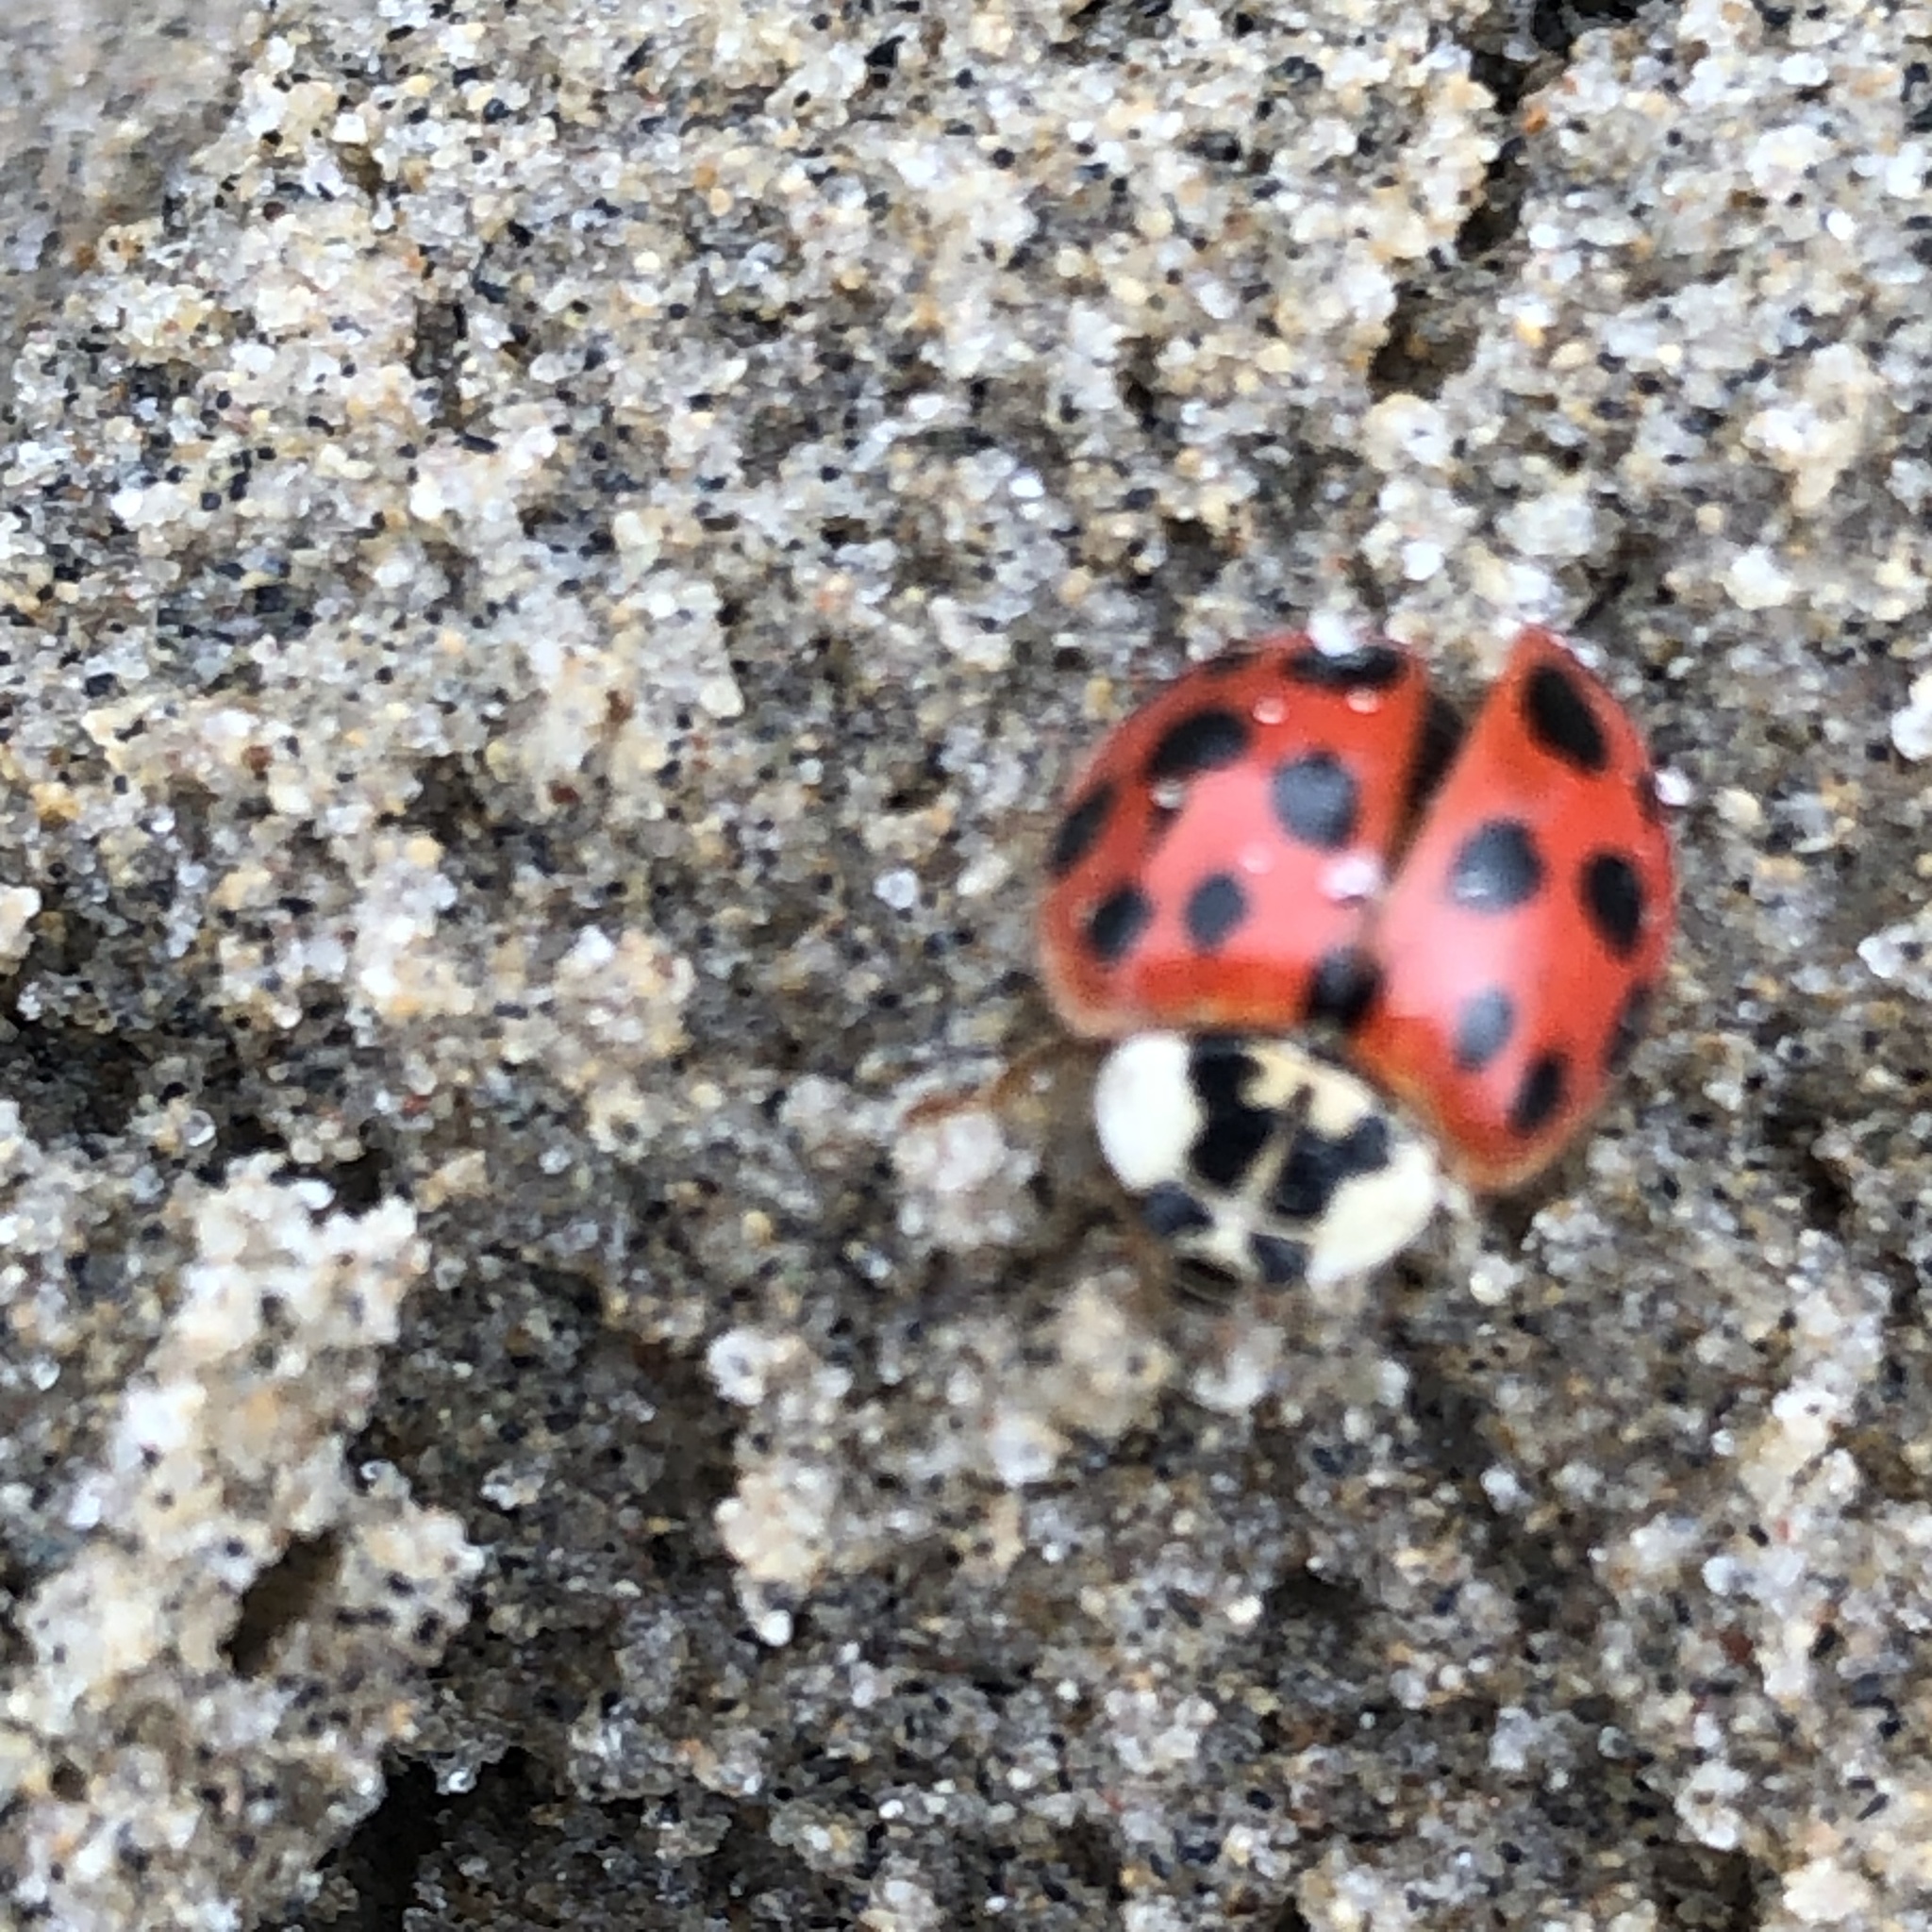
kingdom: Animalia
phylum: Arthropoda
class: Insecta
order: Coleoptera
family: Coccinellidae
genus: Harmonia
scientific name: Harmonia axyridis
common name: Harlequin ladybird
